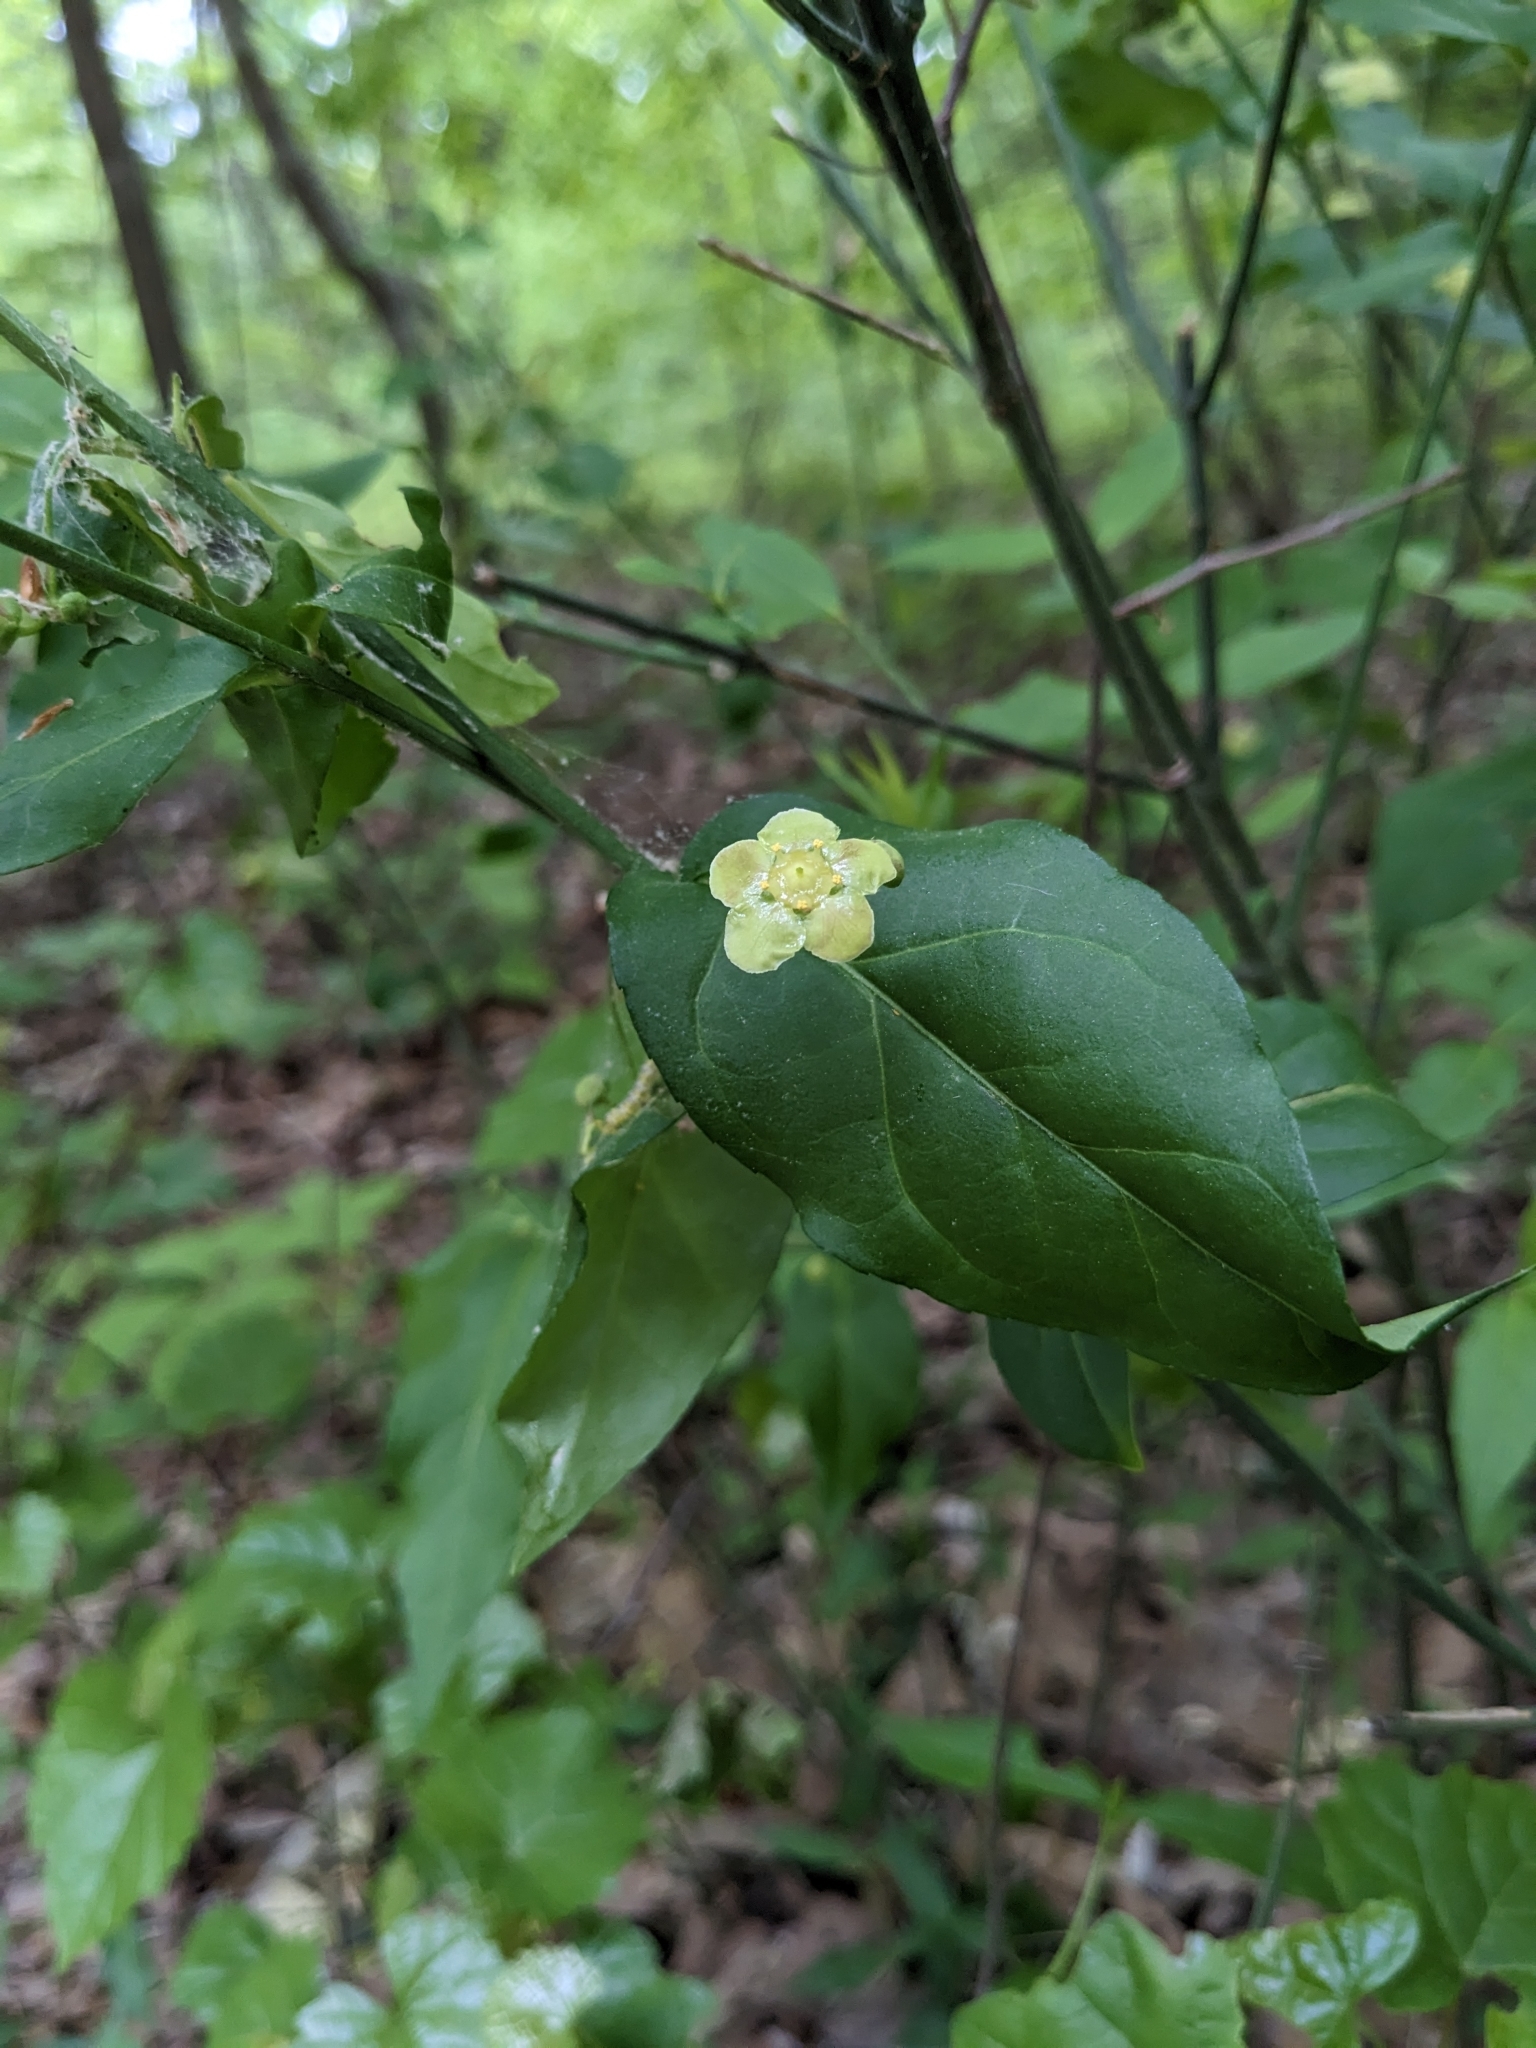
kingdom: Plantae
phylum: Tracheophyta
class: Magnoliopsida
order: Celastrales
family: Celastraceae
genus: Euonymus
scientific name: Euonymus americanus
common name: Bursting-heart
